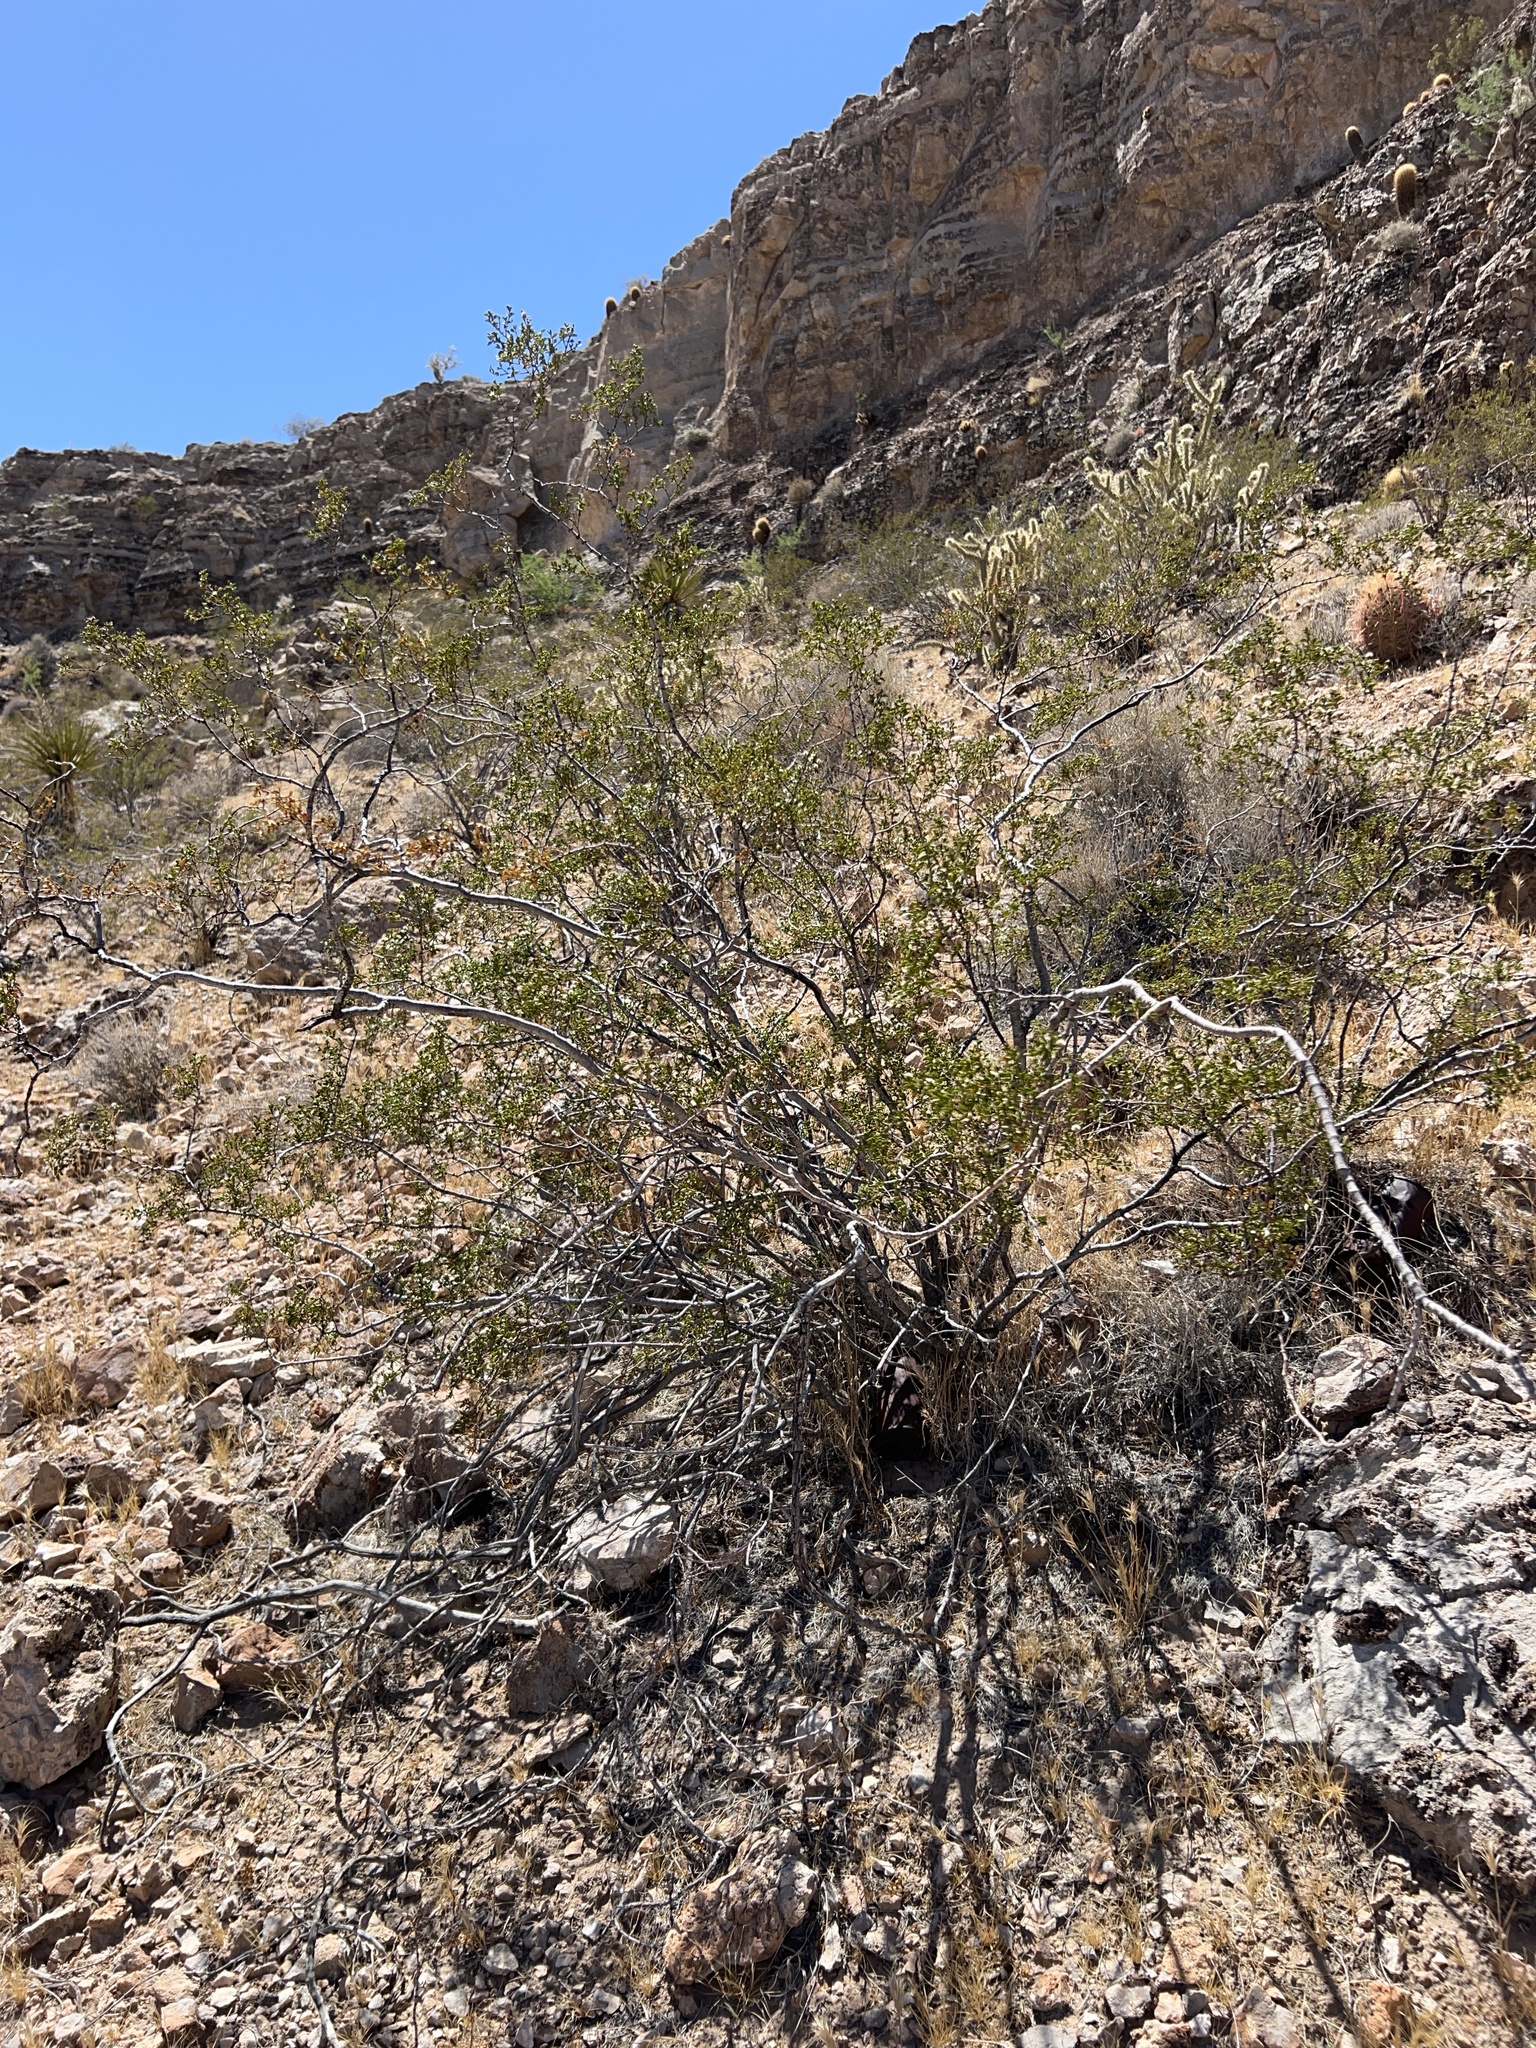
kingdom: Plantae
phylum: Tracheophyta
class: Magnoliopsida
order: Zygophyllales
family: Zygophyllaceae
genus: Larrea
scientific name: Larrea tridentata
